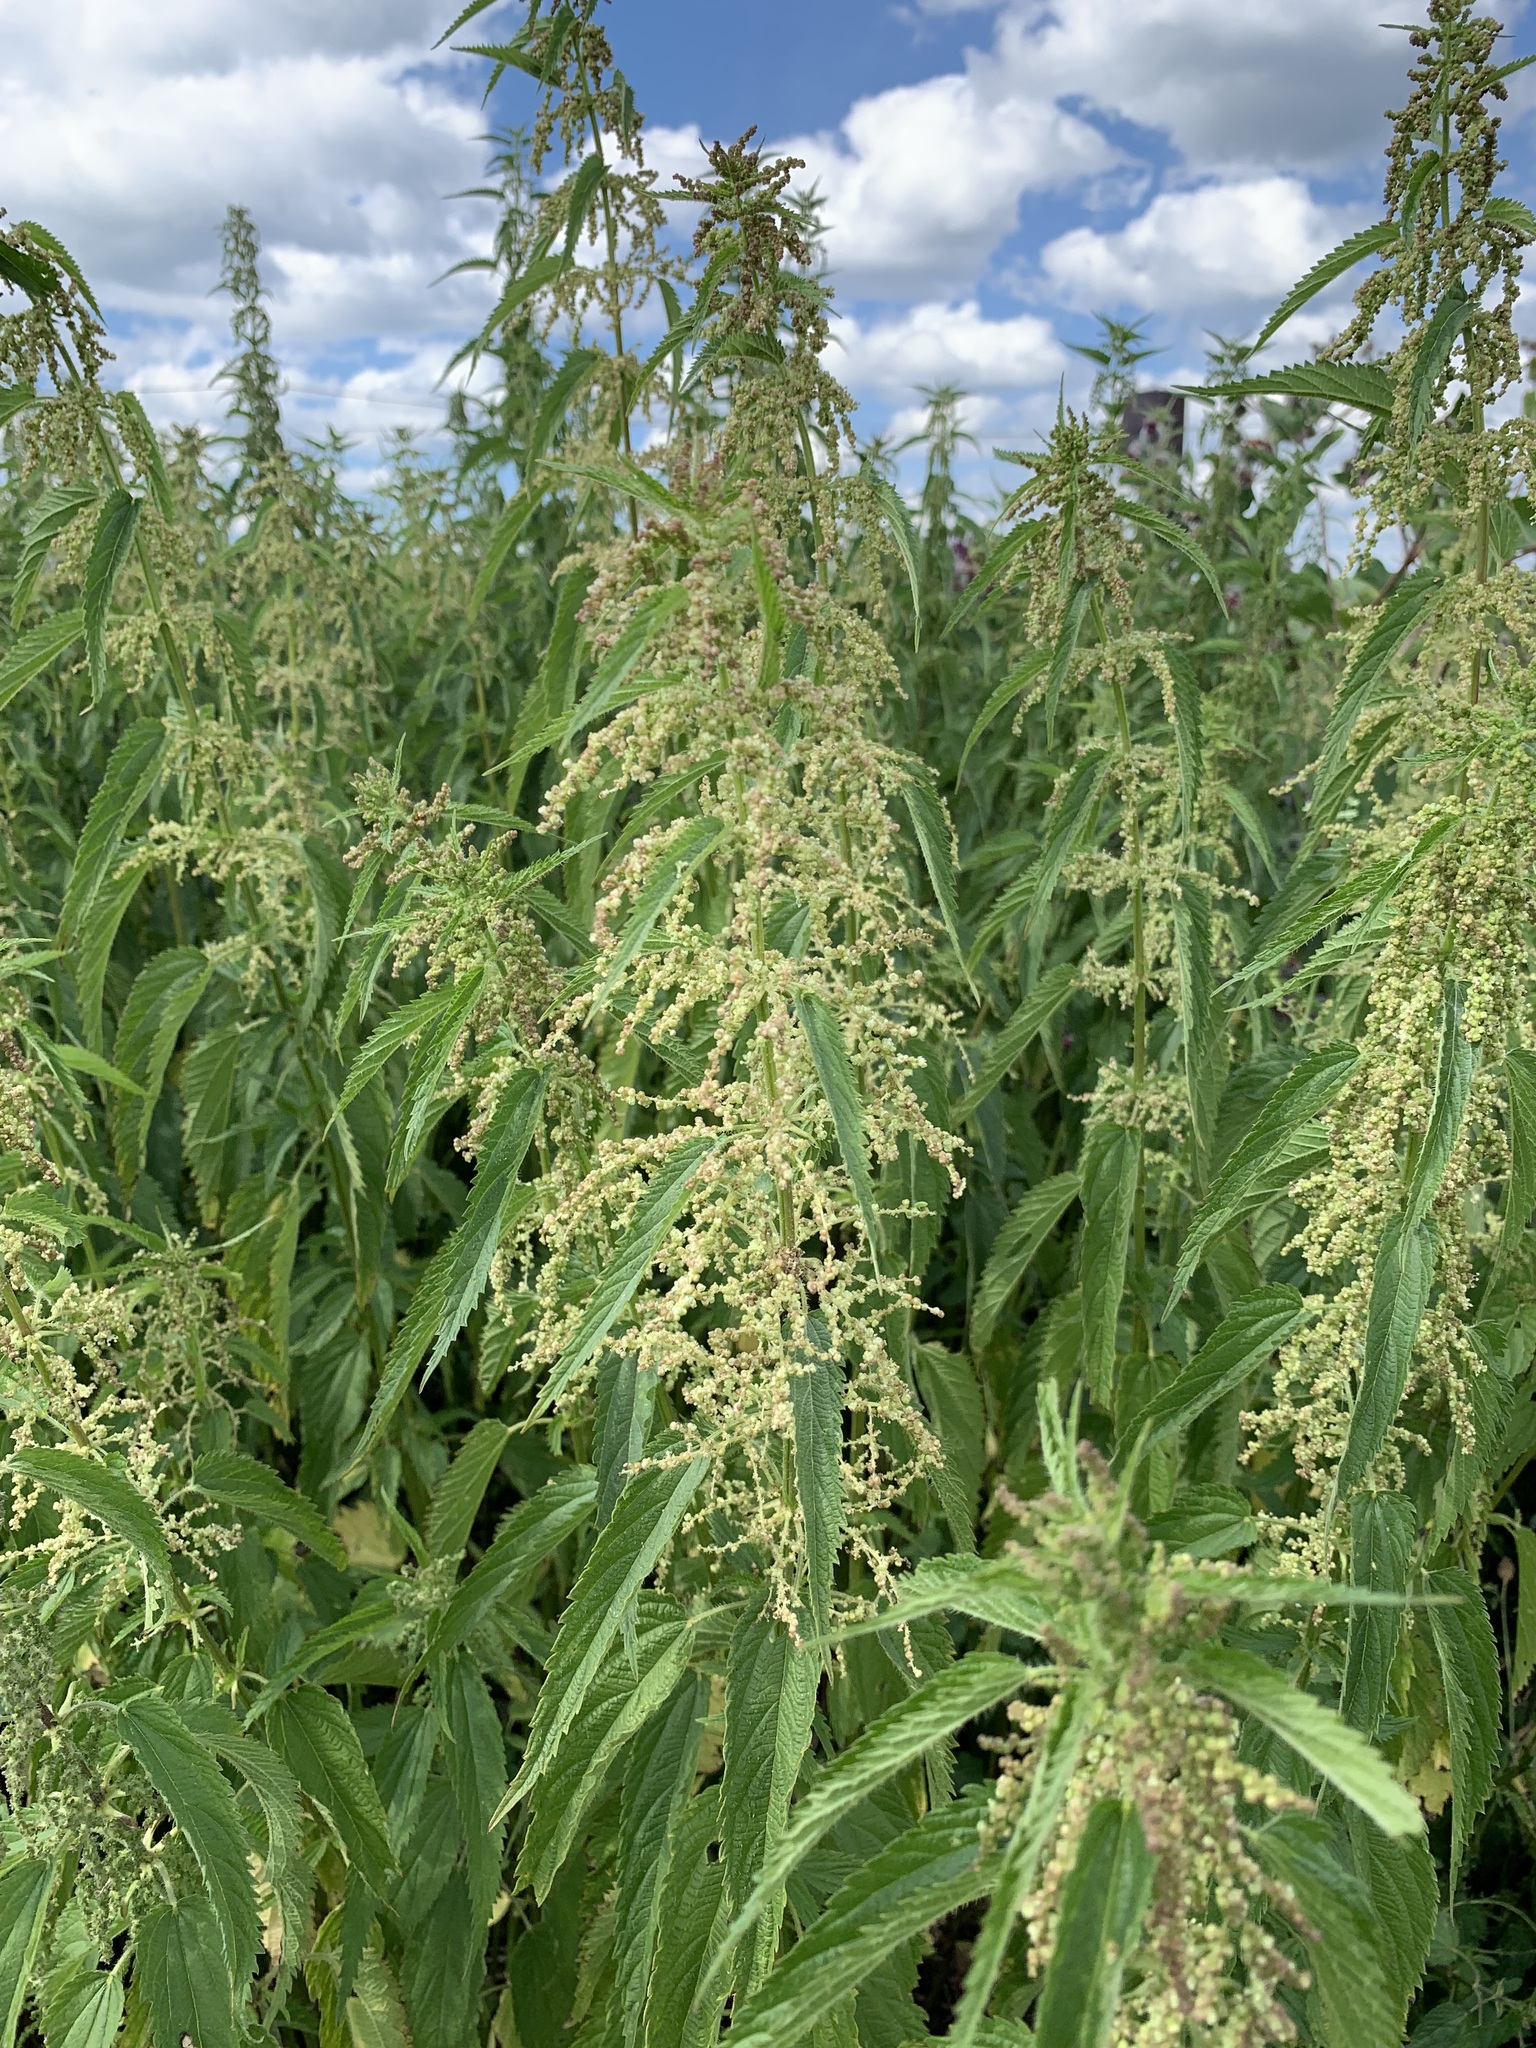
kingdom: Plantae
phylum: Tracheophyta
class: Magnoliopsida
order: Rosales
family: Urticaceae
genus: Urtica
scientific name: Urtica dioica
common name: Common nettle
